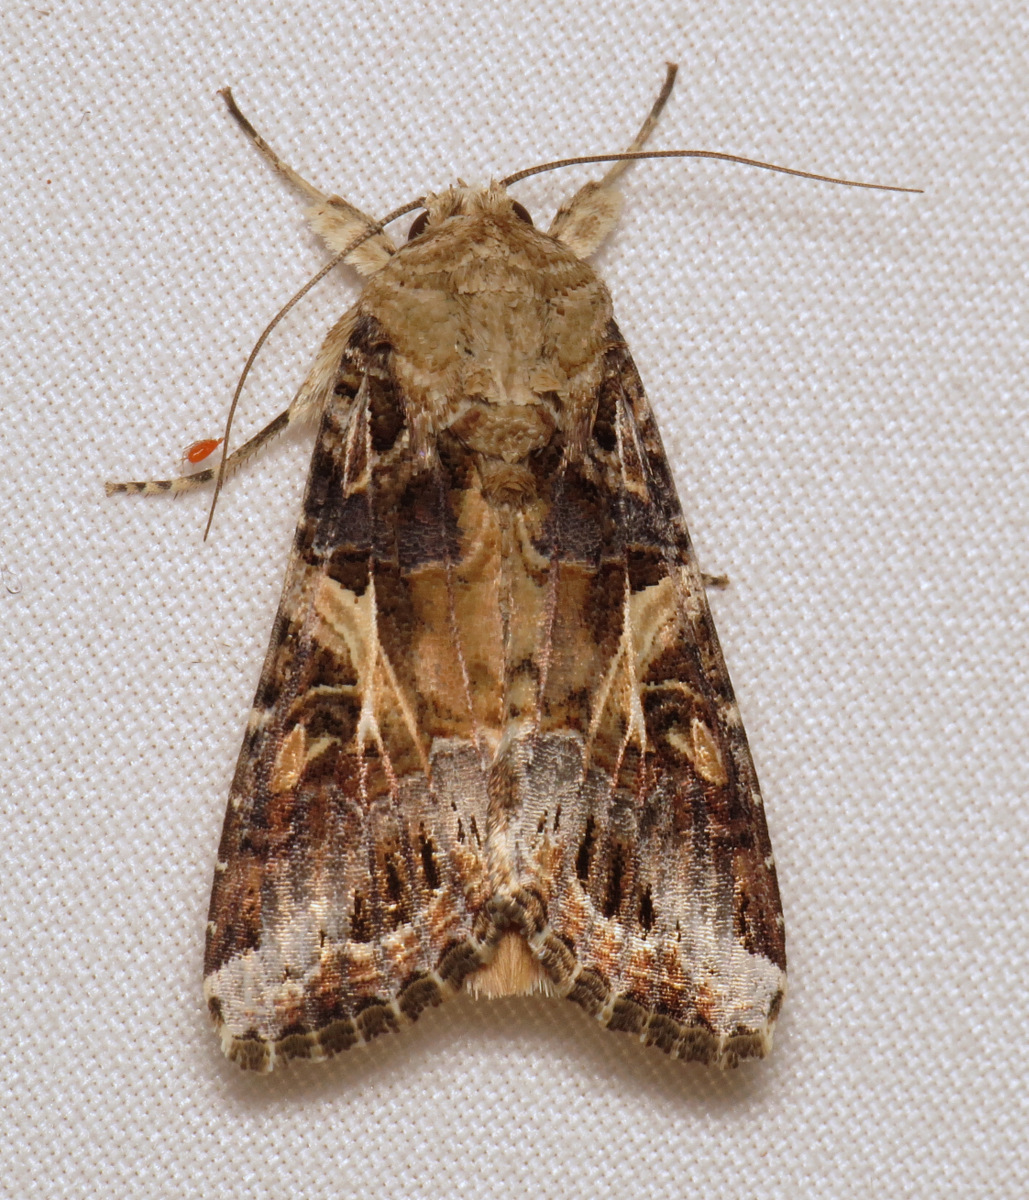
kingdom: Animalia
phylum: Arthropoda
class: Insecta
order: Lepidoptera
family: Noctuidae
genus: Spodoptera
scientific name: Spodoptera ornithogalli
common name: Yellow-striped armyworm
